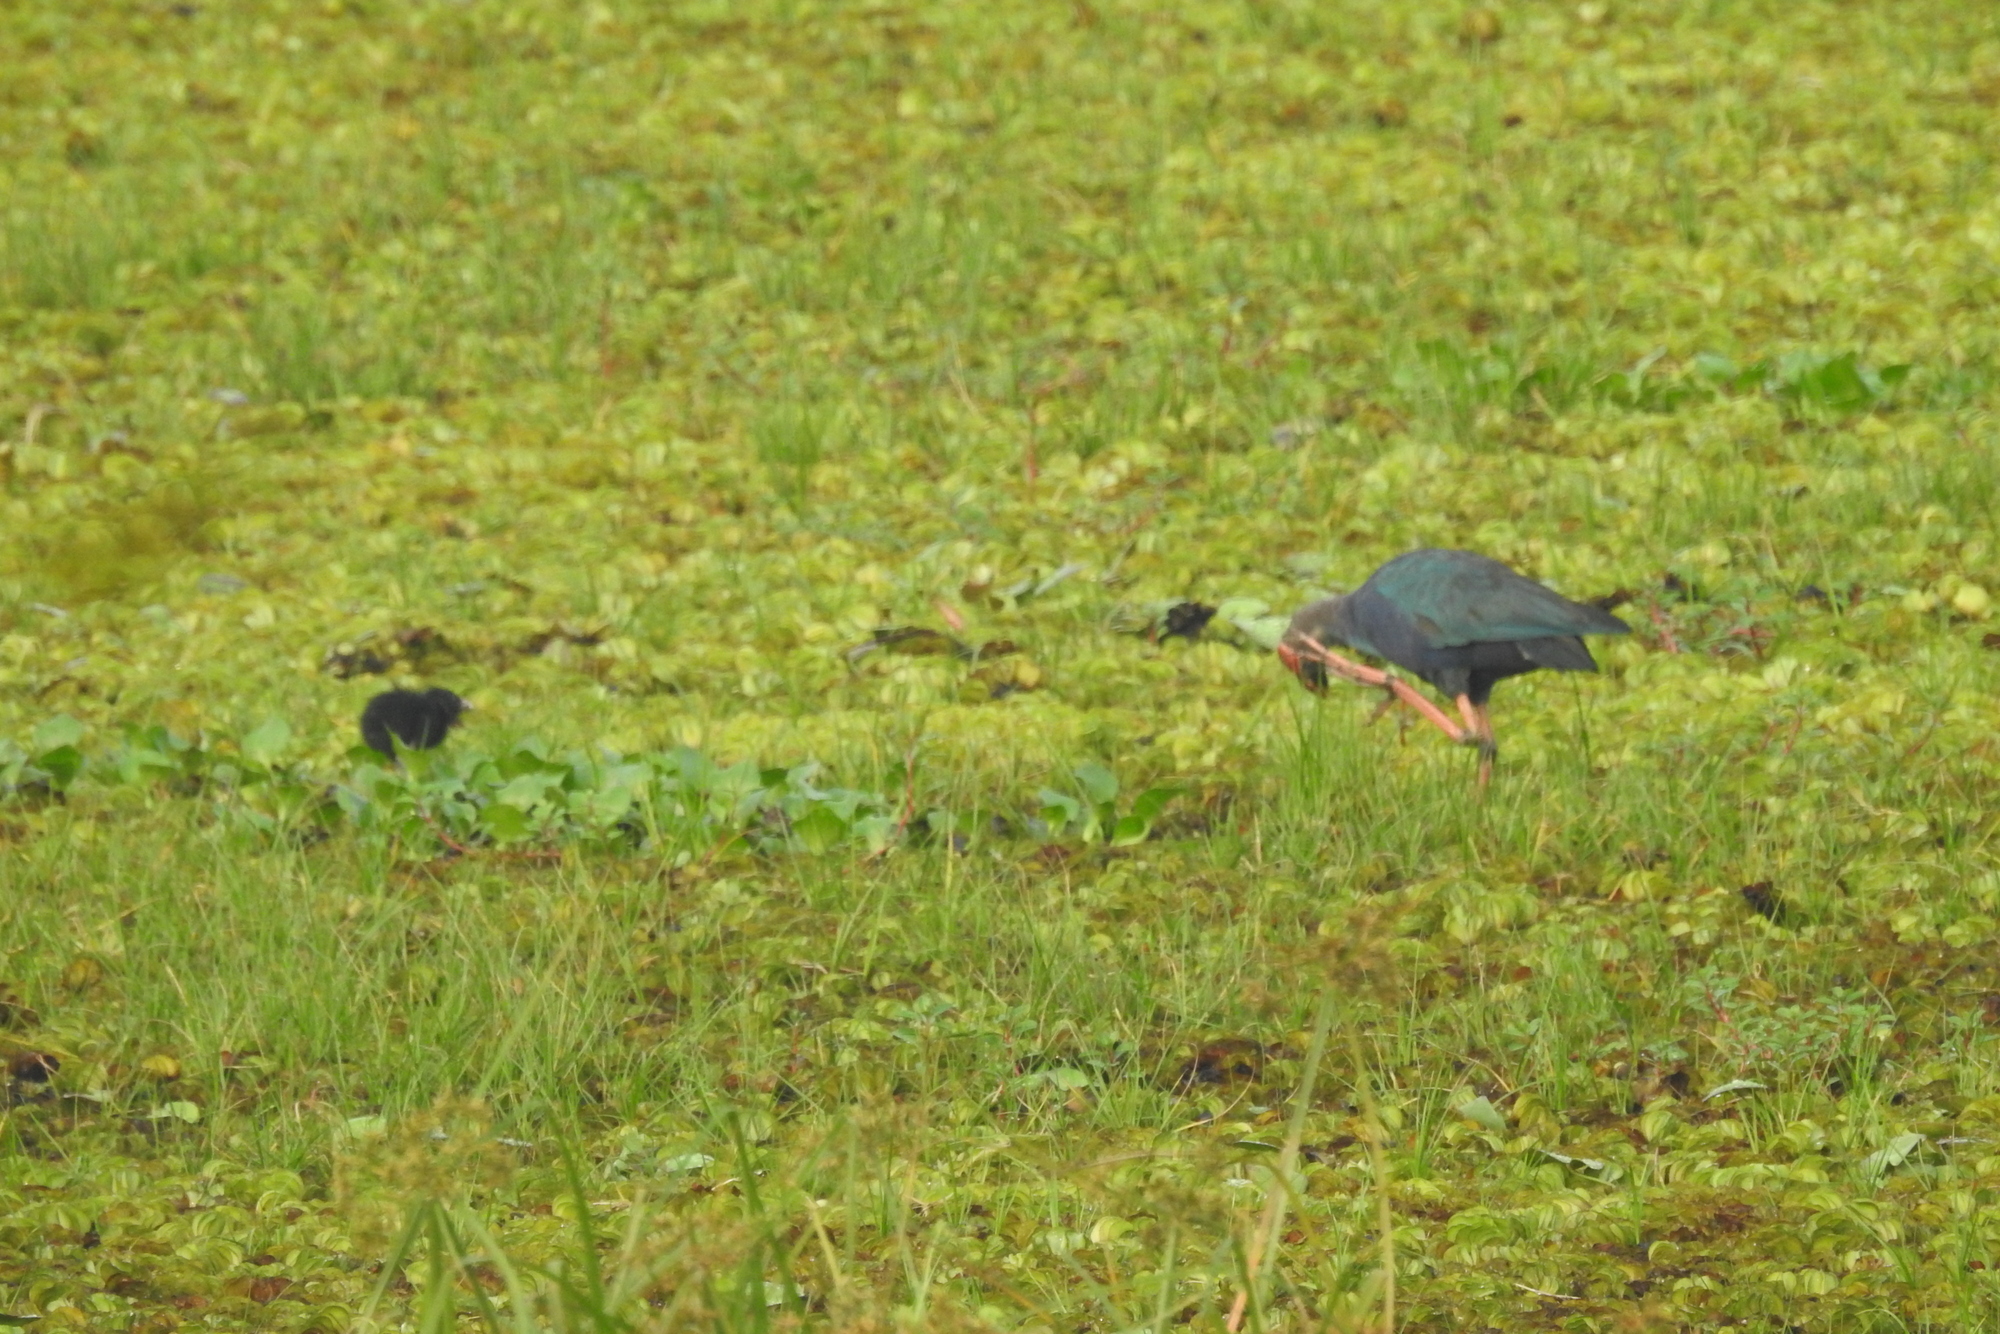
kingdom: Animalia
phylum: Chordata
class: Aves
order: Gruiformes
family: Rallidae
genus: Porphyrio
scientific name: Porphyrio porphyrio
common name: Purple swamphen
